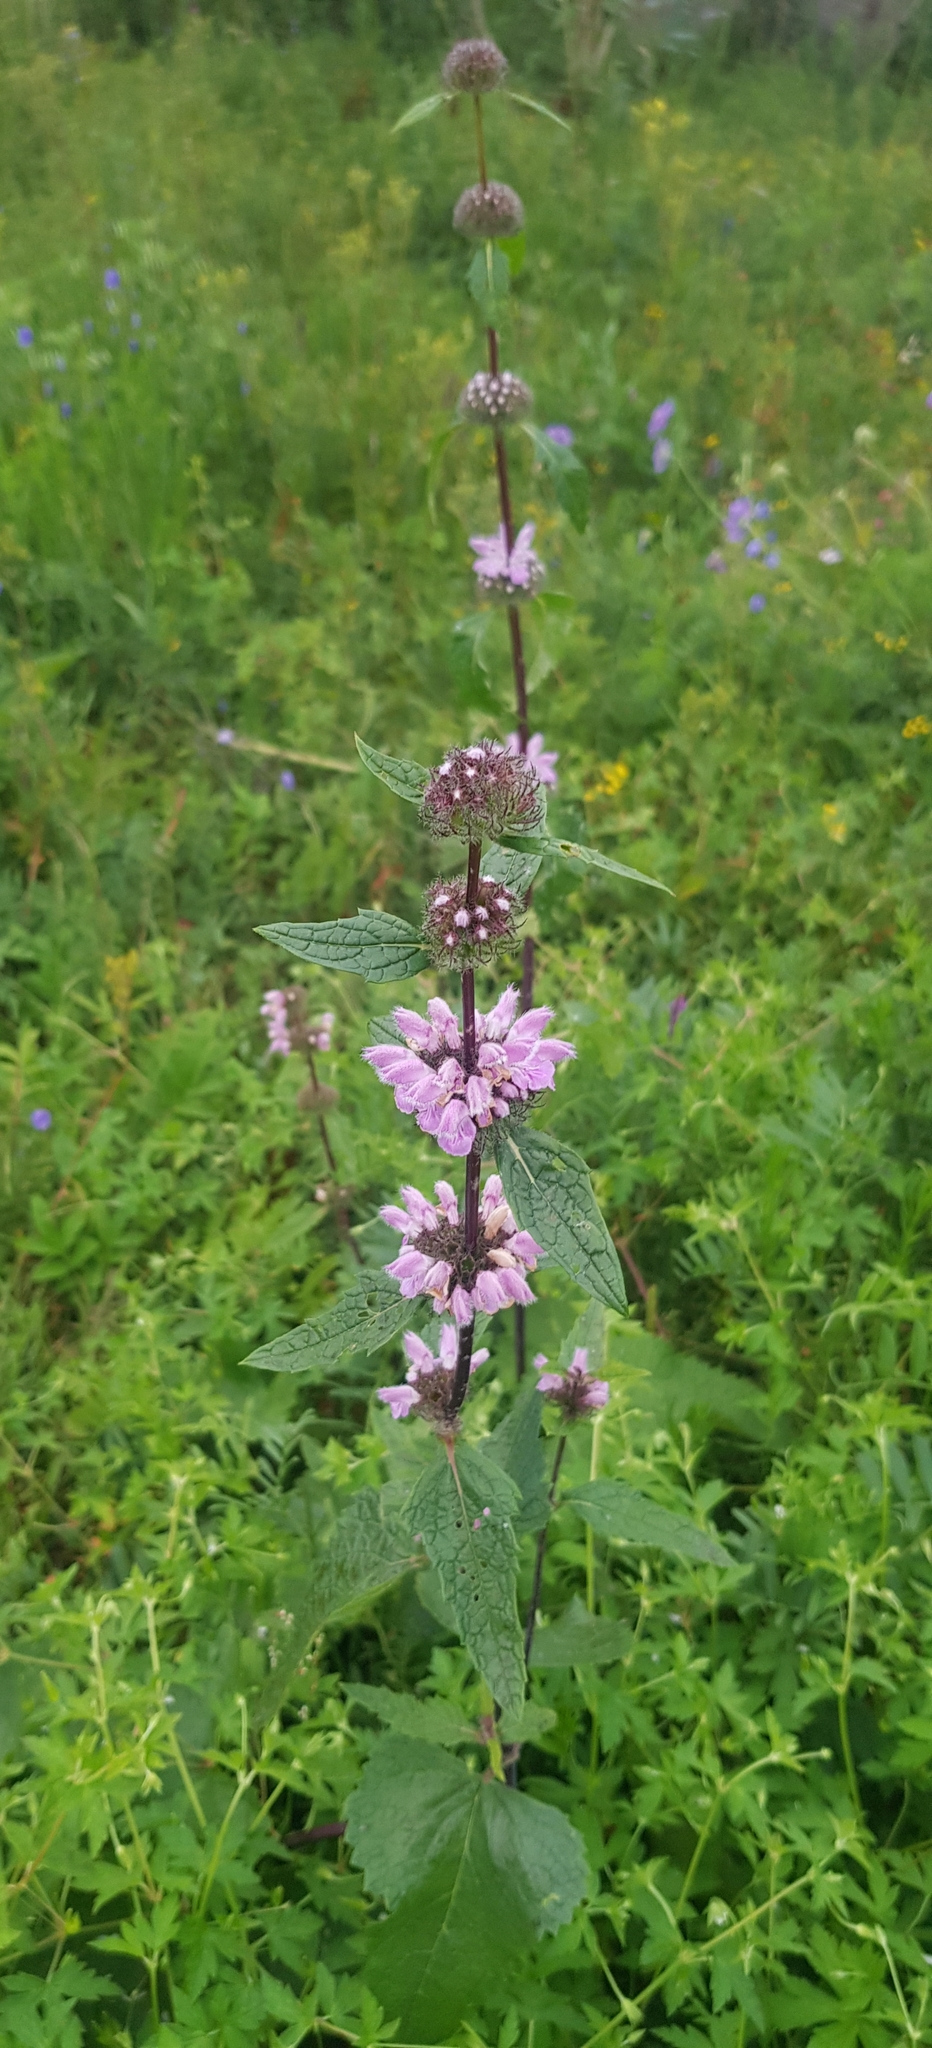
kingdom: Plantae
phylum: Tracheophyta
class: Magnoliopsida
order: Lamiales
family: Lamiaceae
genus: Phlomoides
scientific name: Phlomoides tuberosa
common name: Tuberous jerusalem sage
